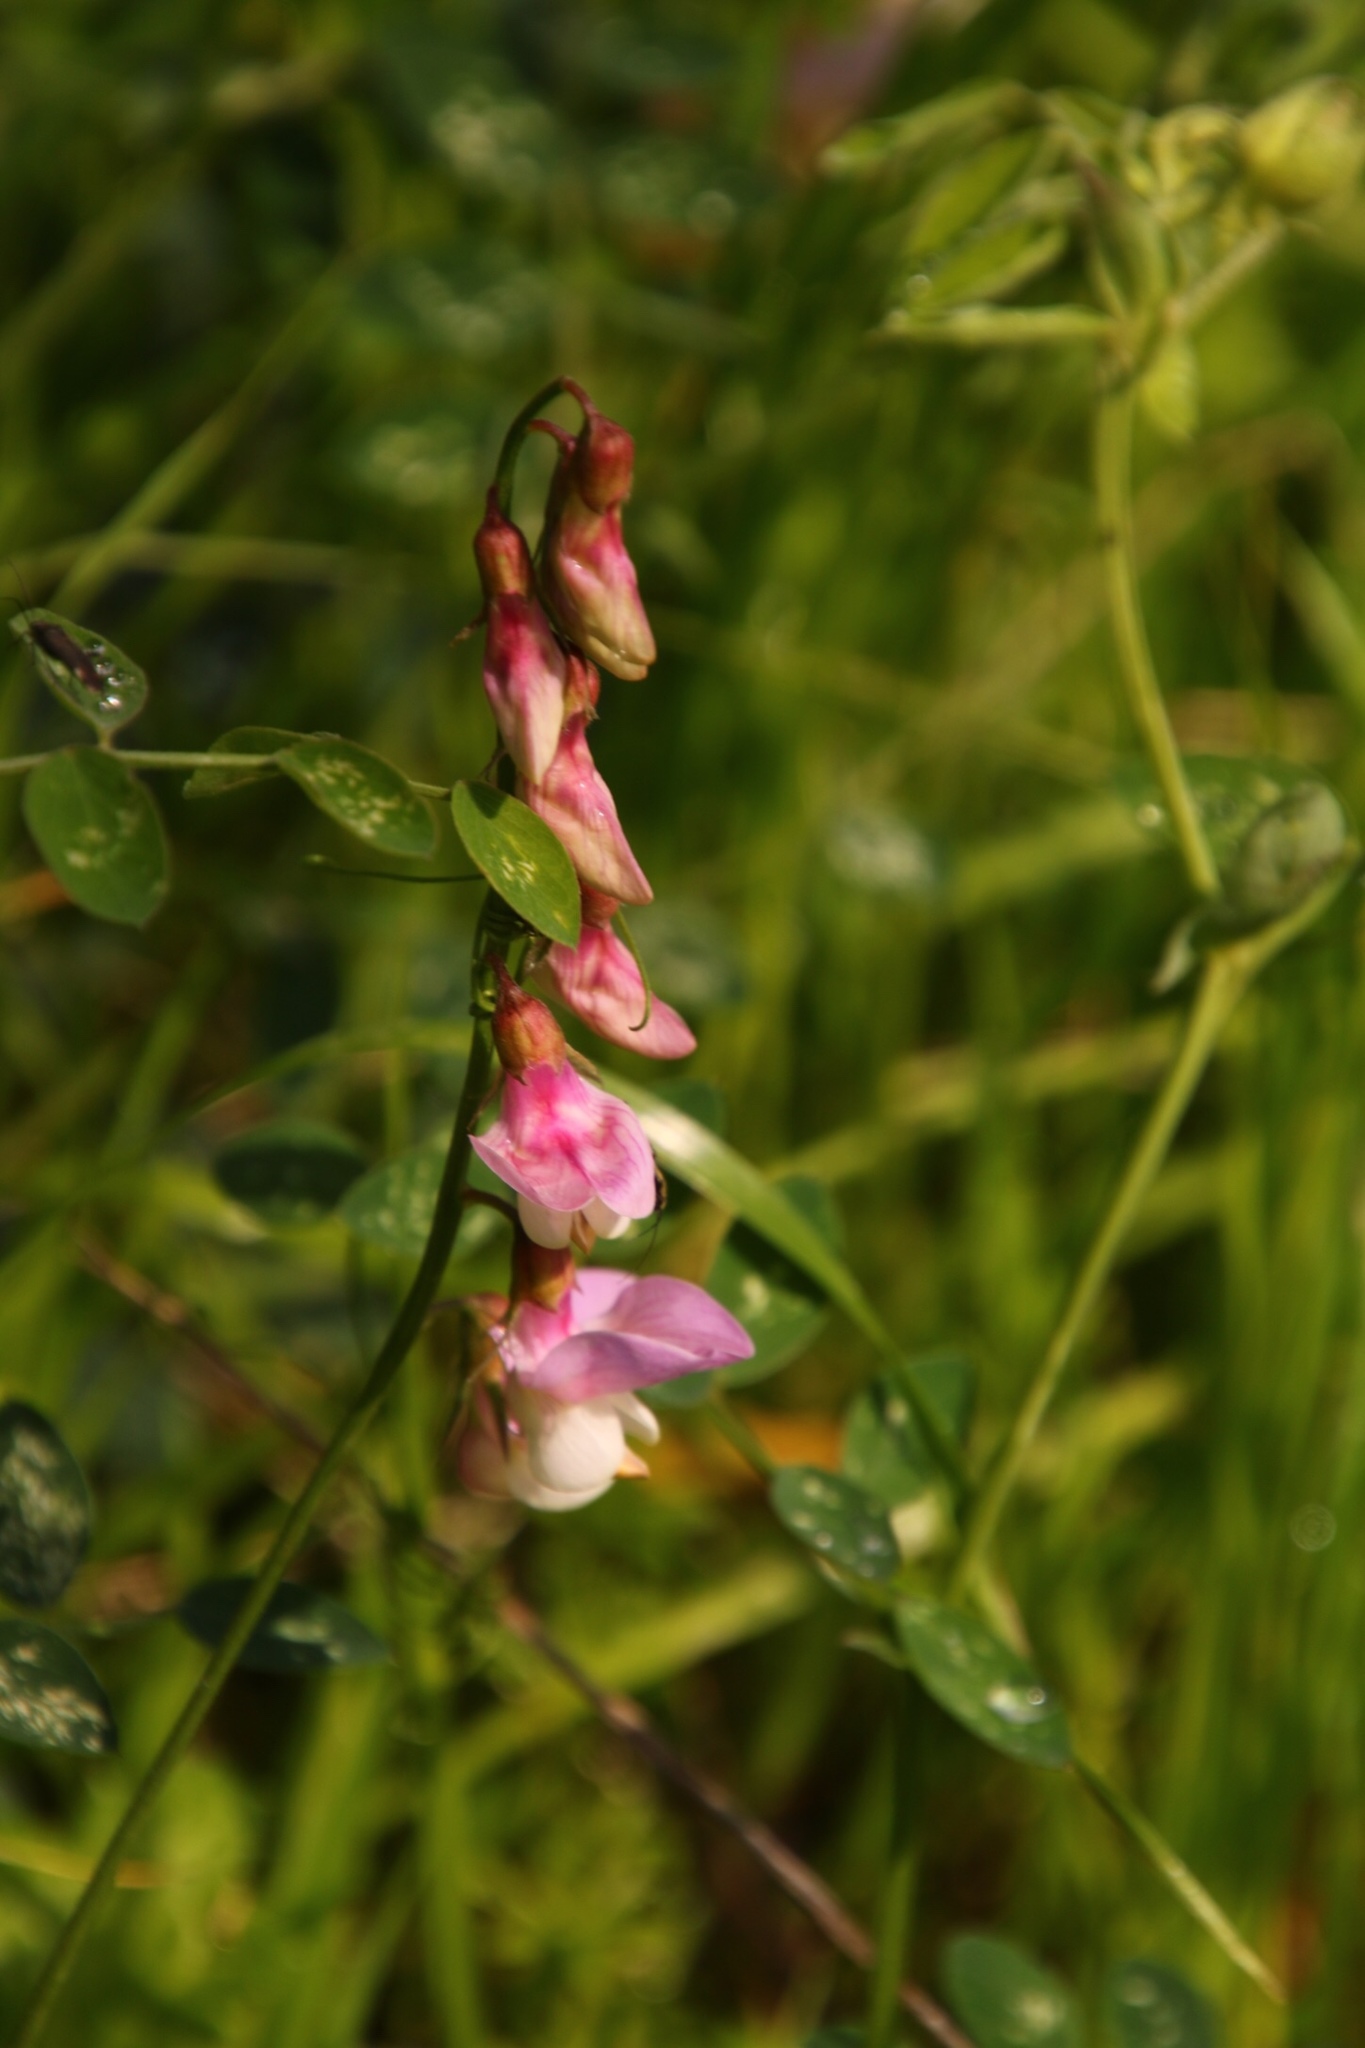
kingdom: Plantae
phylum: Tracheophyta
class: Magnoliopsida
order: Fabales
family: Fabaceae
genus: Lathyrus
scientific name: Lathyrus vestitus
